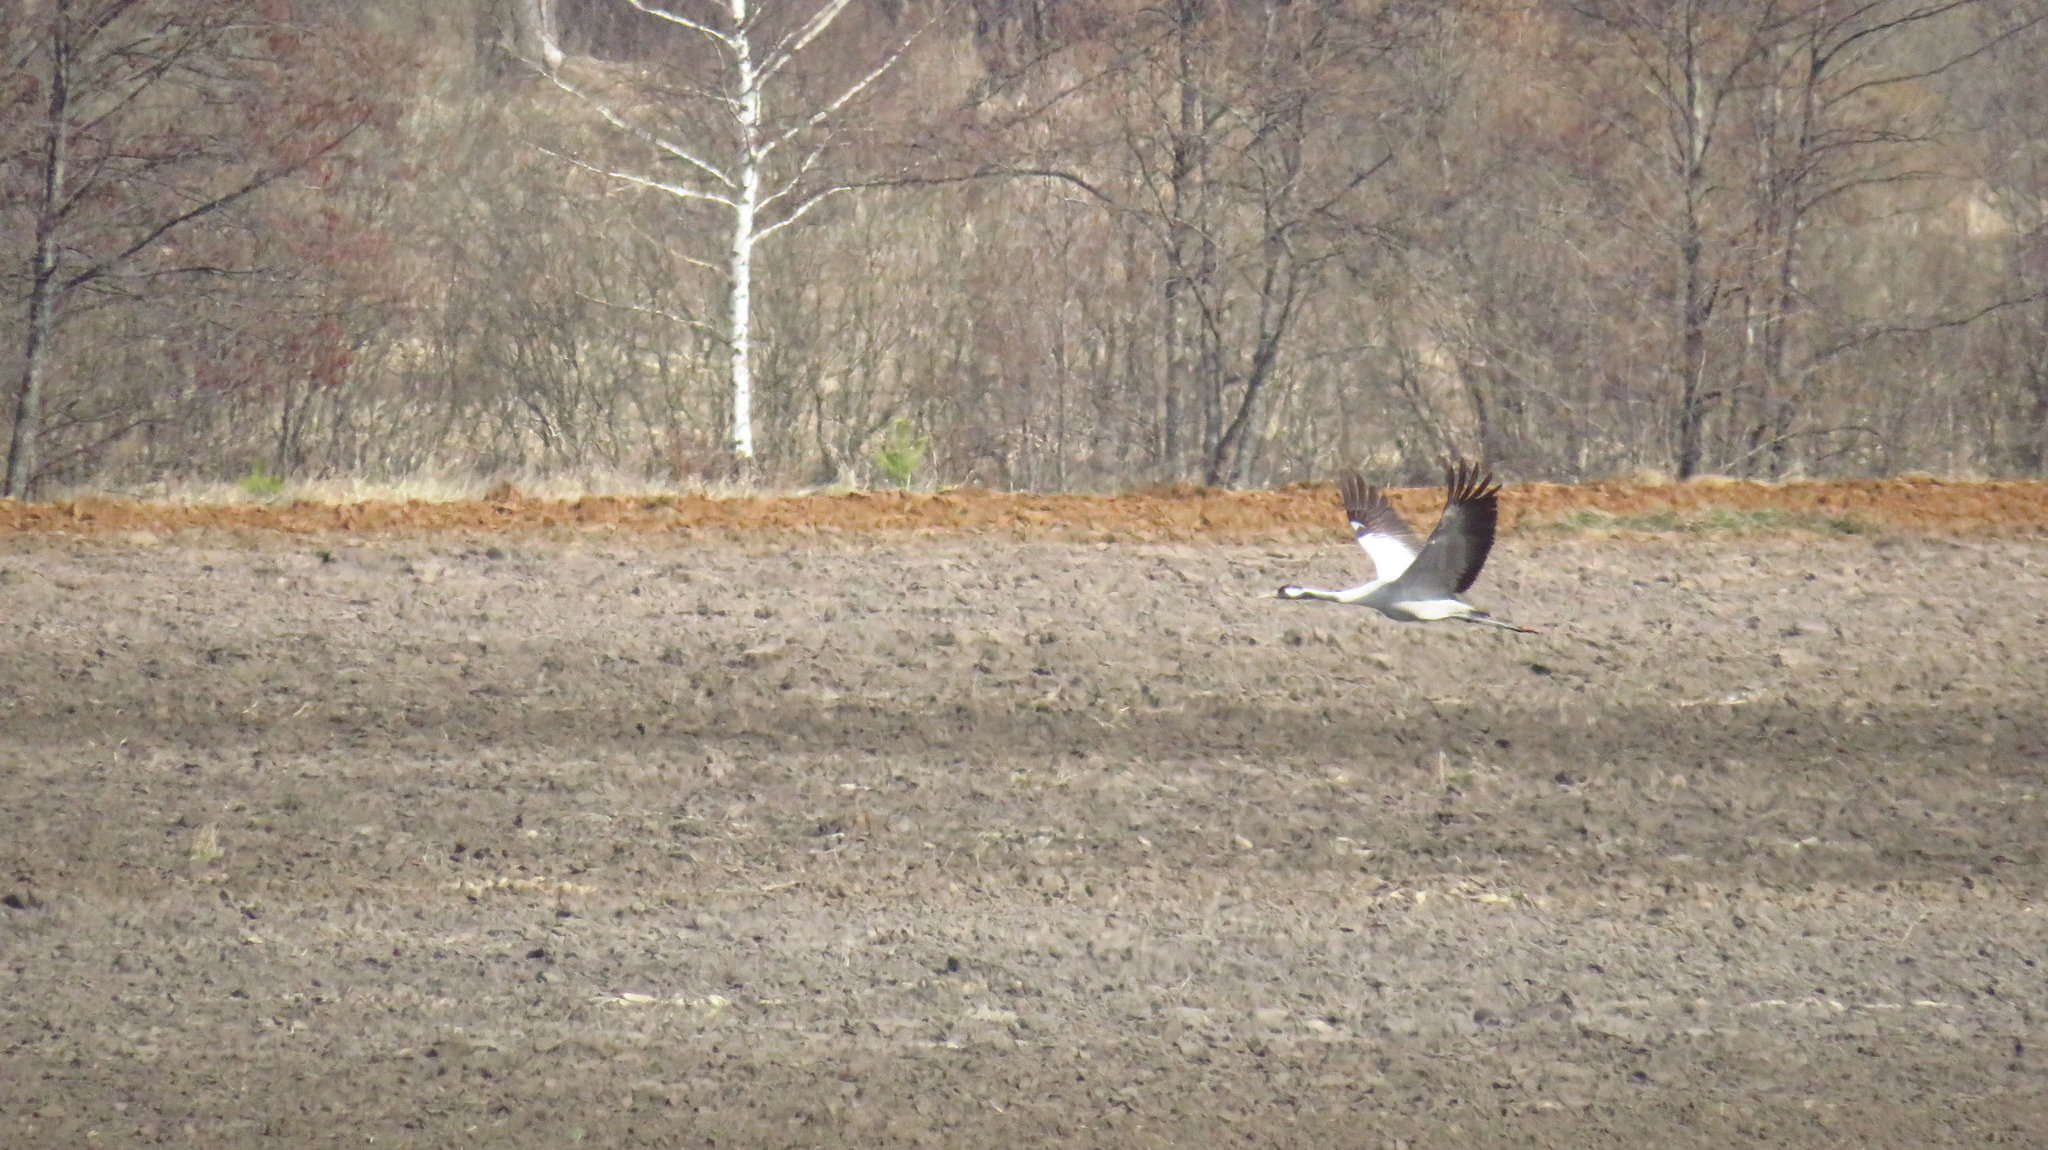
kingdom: Animalia
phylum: Chordata
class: Aves
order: Gruiformes
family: Gruidae
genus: Grus
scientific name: Grus grus
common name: Common crane
